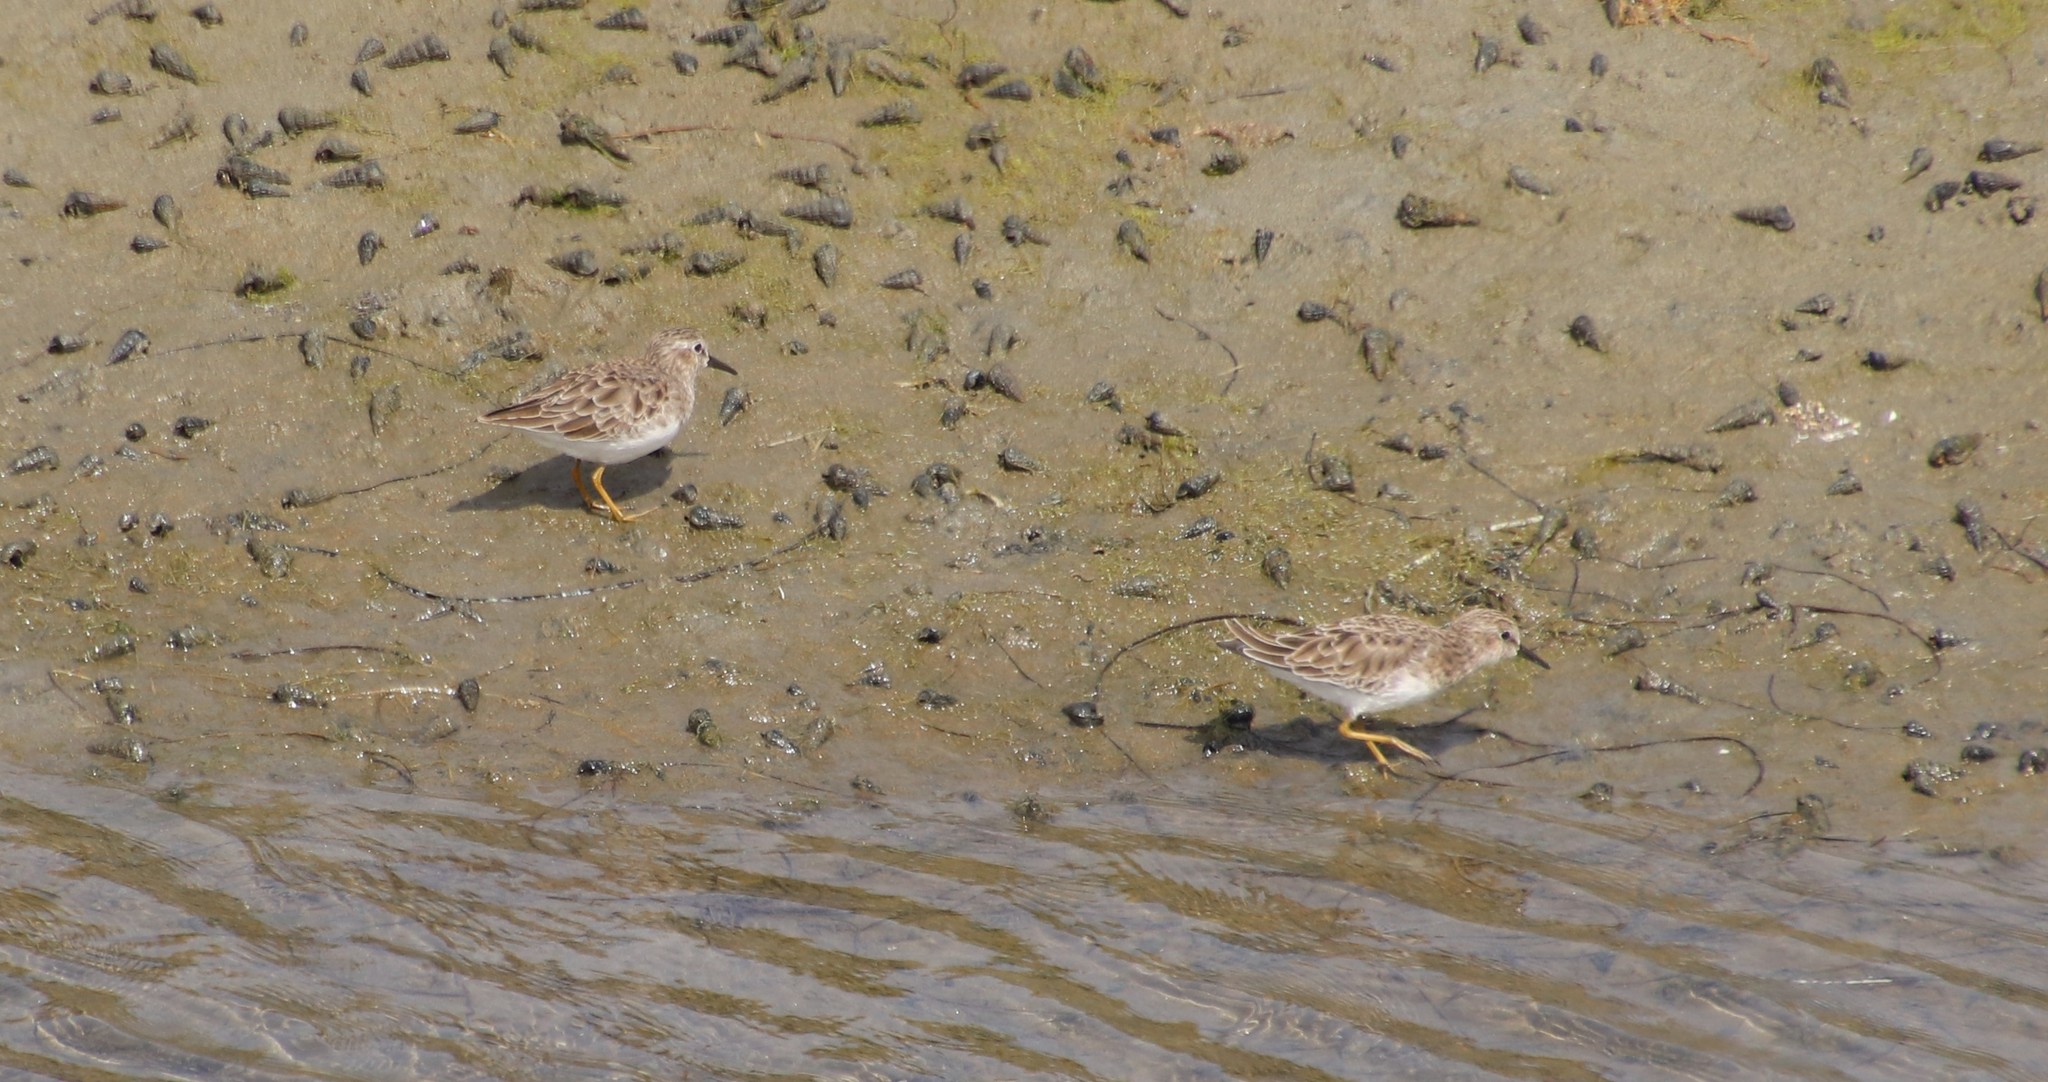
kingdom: Animalia
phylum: Chordata
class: Aves
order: Charadriiformes
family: Scolopacidae
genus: Calidris
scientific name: Calidris minutilla
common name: Least sandpiper
